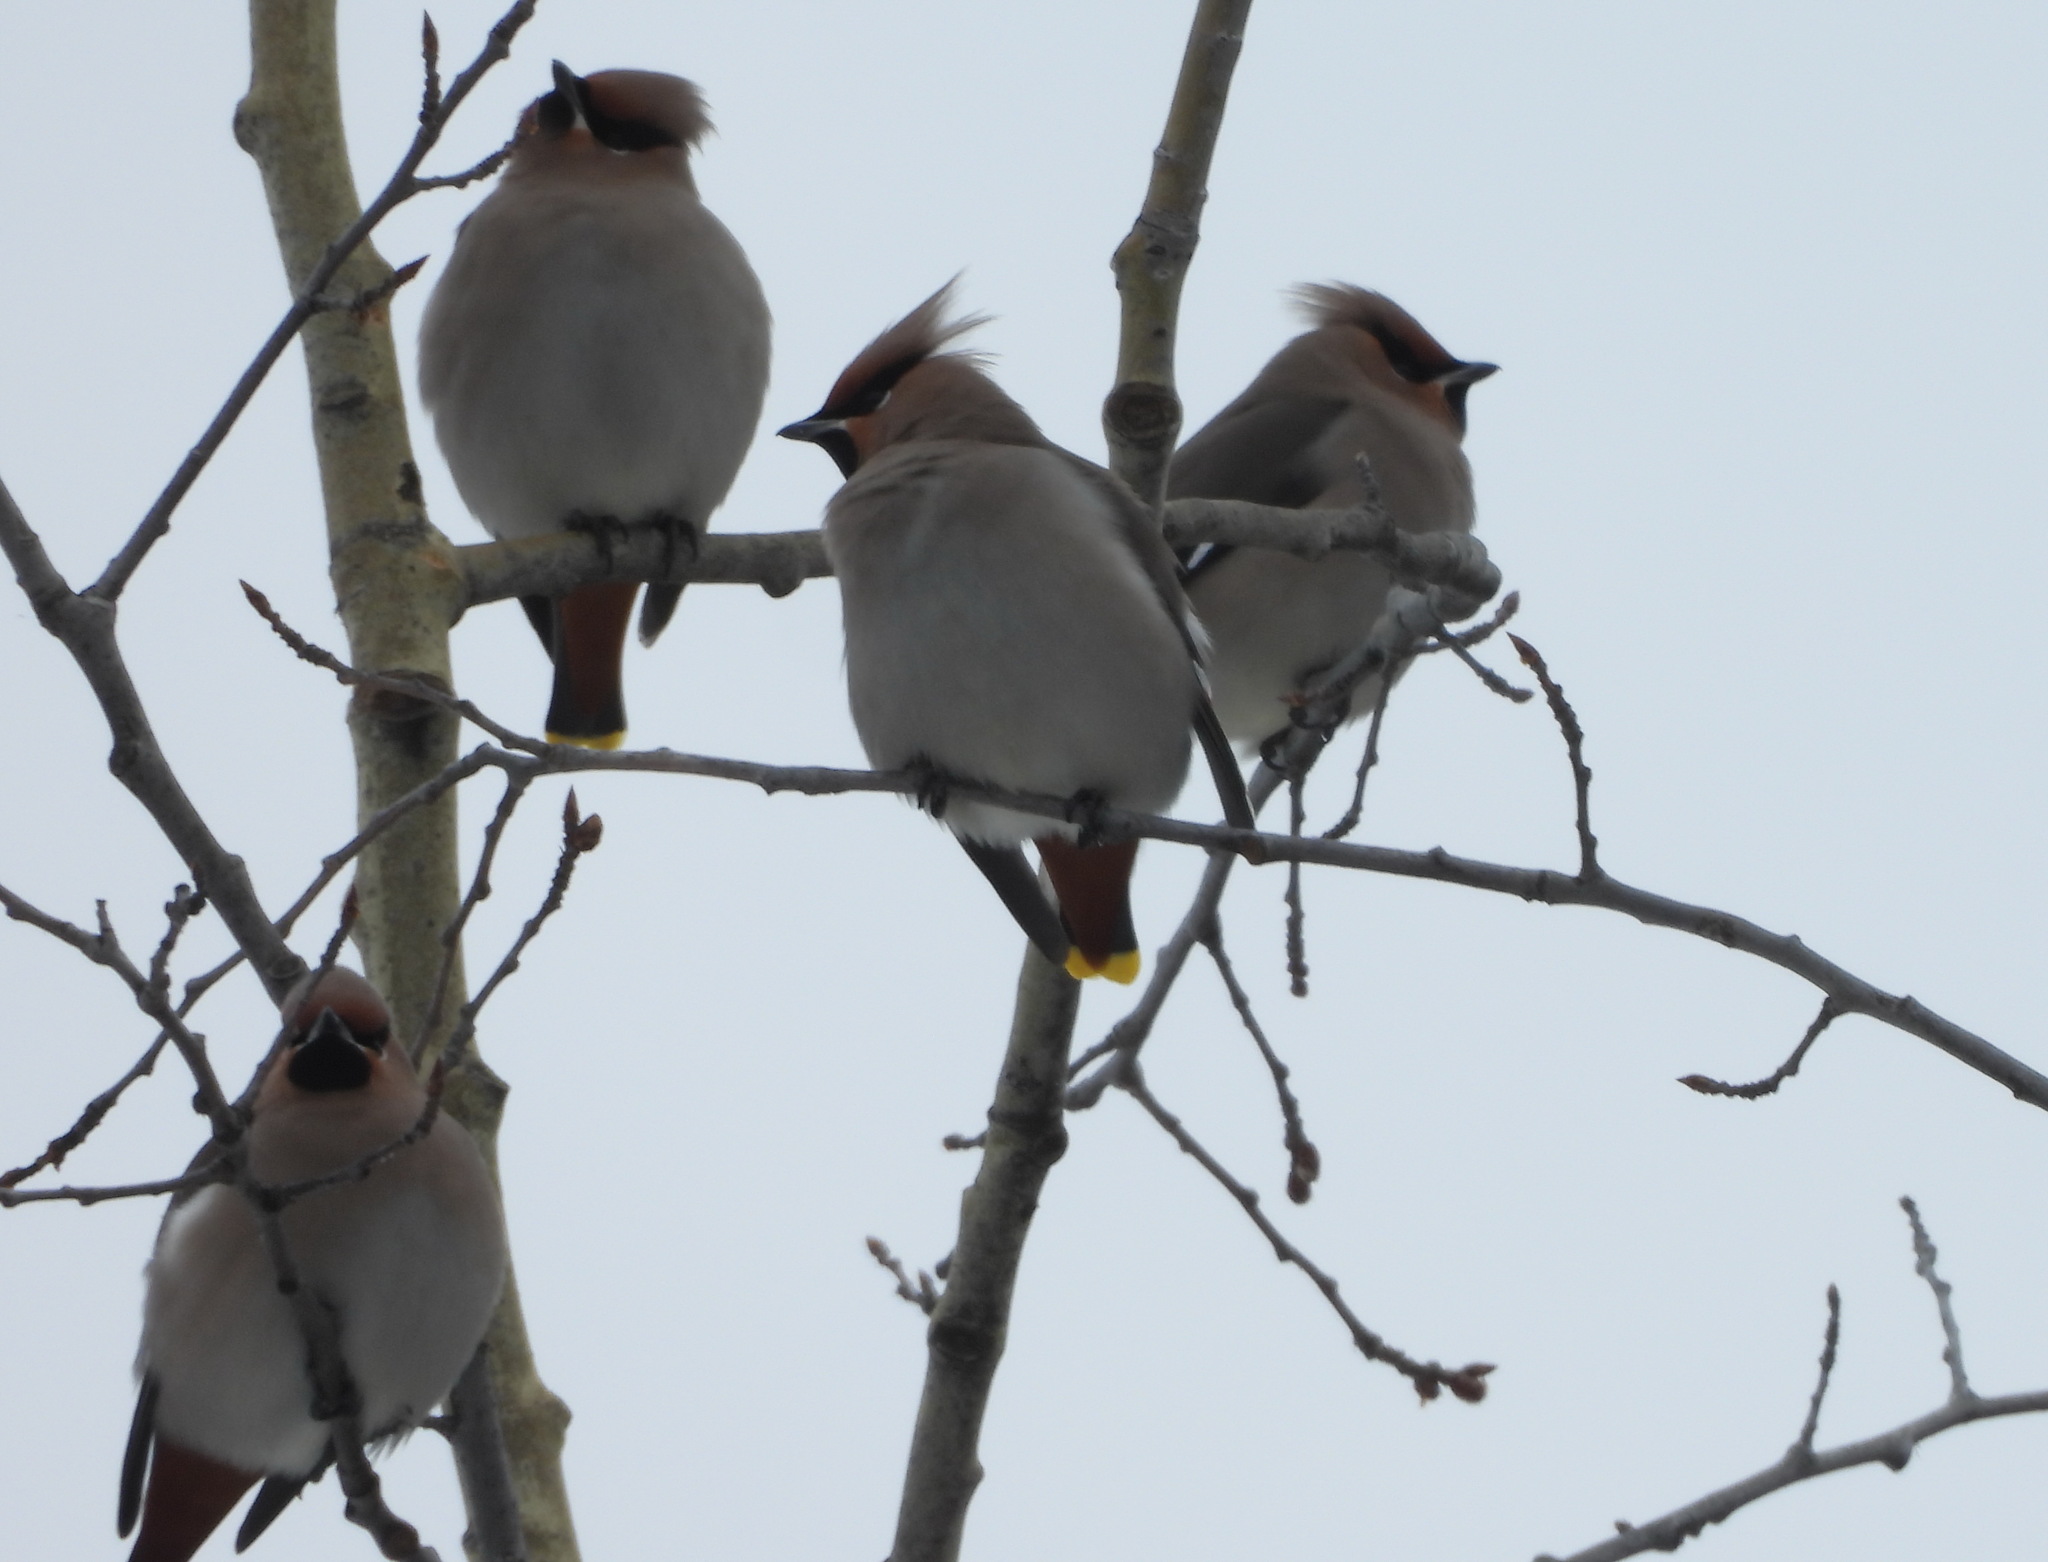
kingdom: Animalia
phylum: Chordata
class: Aves
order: Passeriformes
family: Bombycillidae
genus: Bombycilla
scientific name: Bombycilla garrulus
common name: Bohemian waxwing
